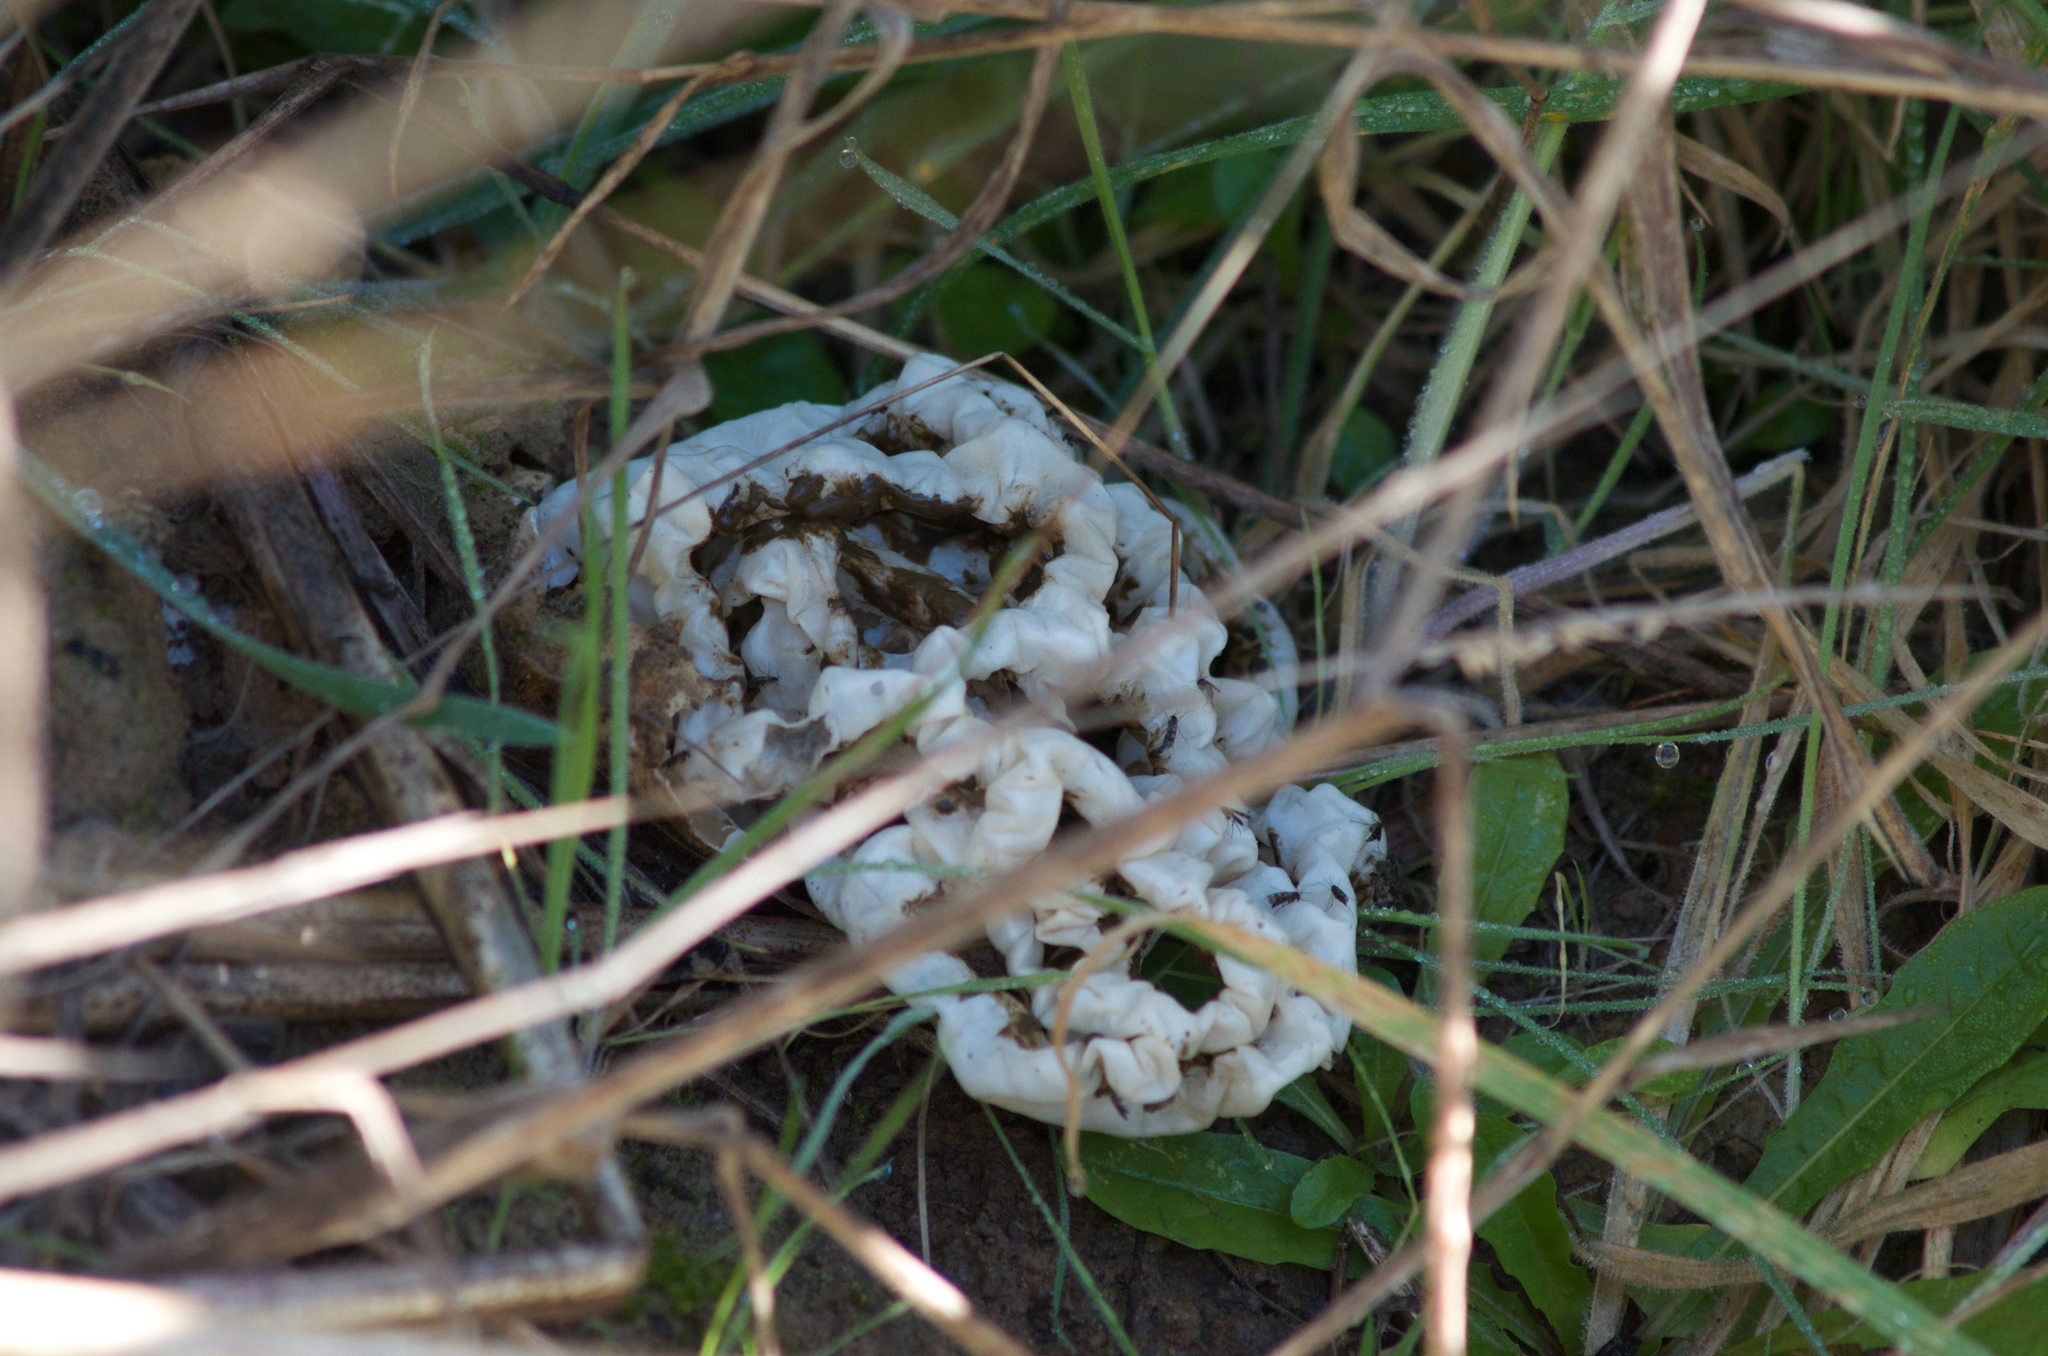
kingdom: Fungi
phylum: Basidiomycota
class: Agaricomycetes
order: Phallales
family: Phallaceae
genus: Ileodictyon
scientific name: Ileodictyon cibarium
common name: Basket fungus
